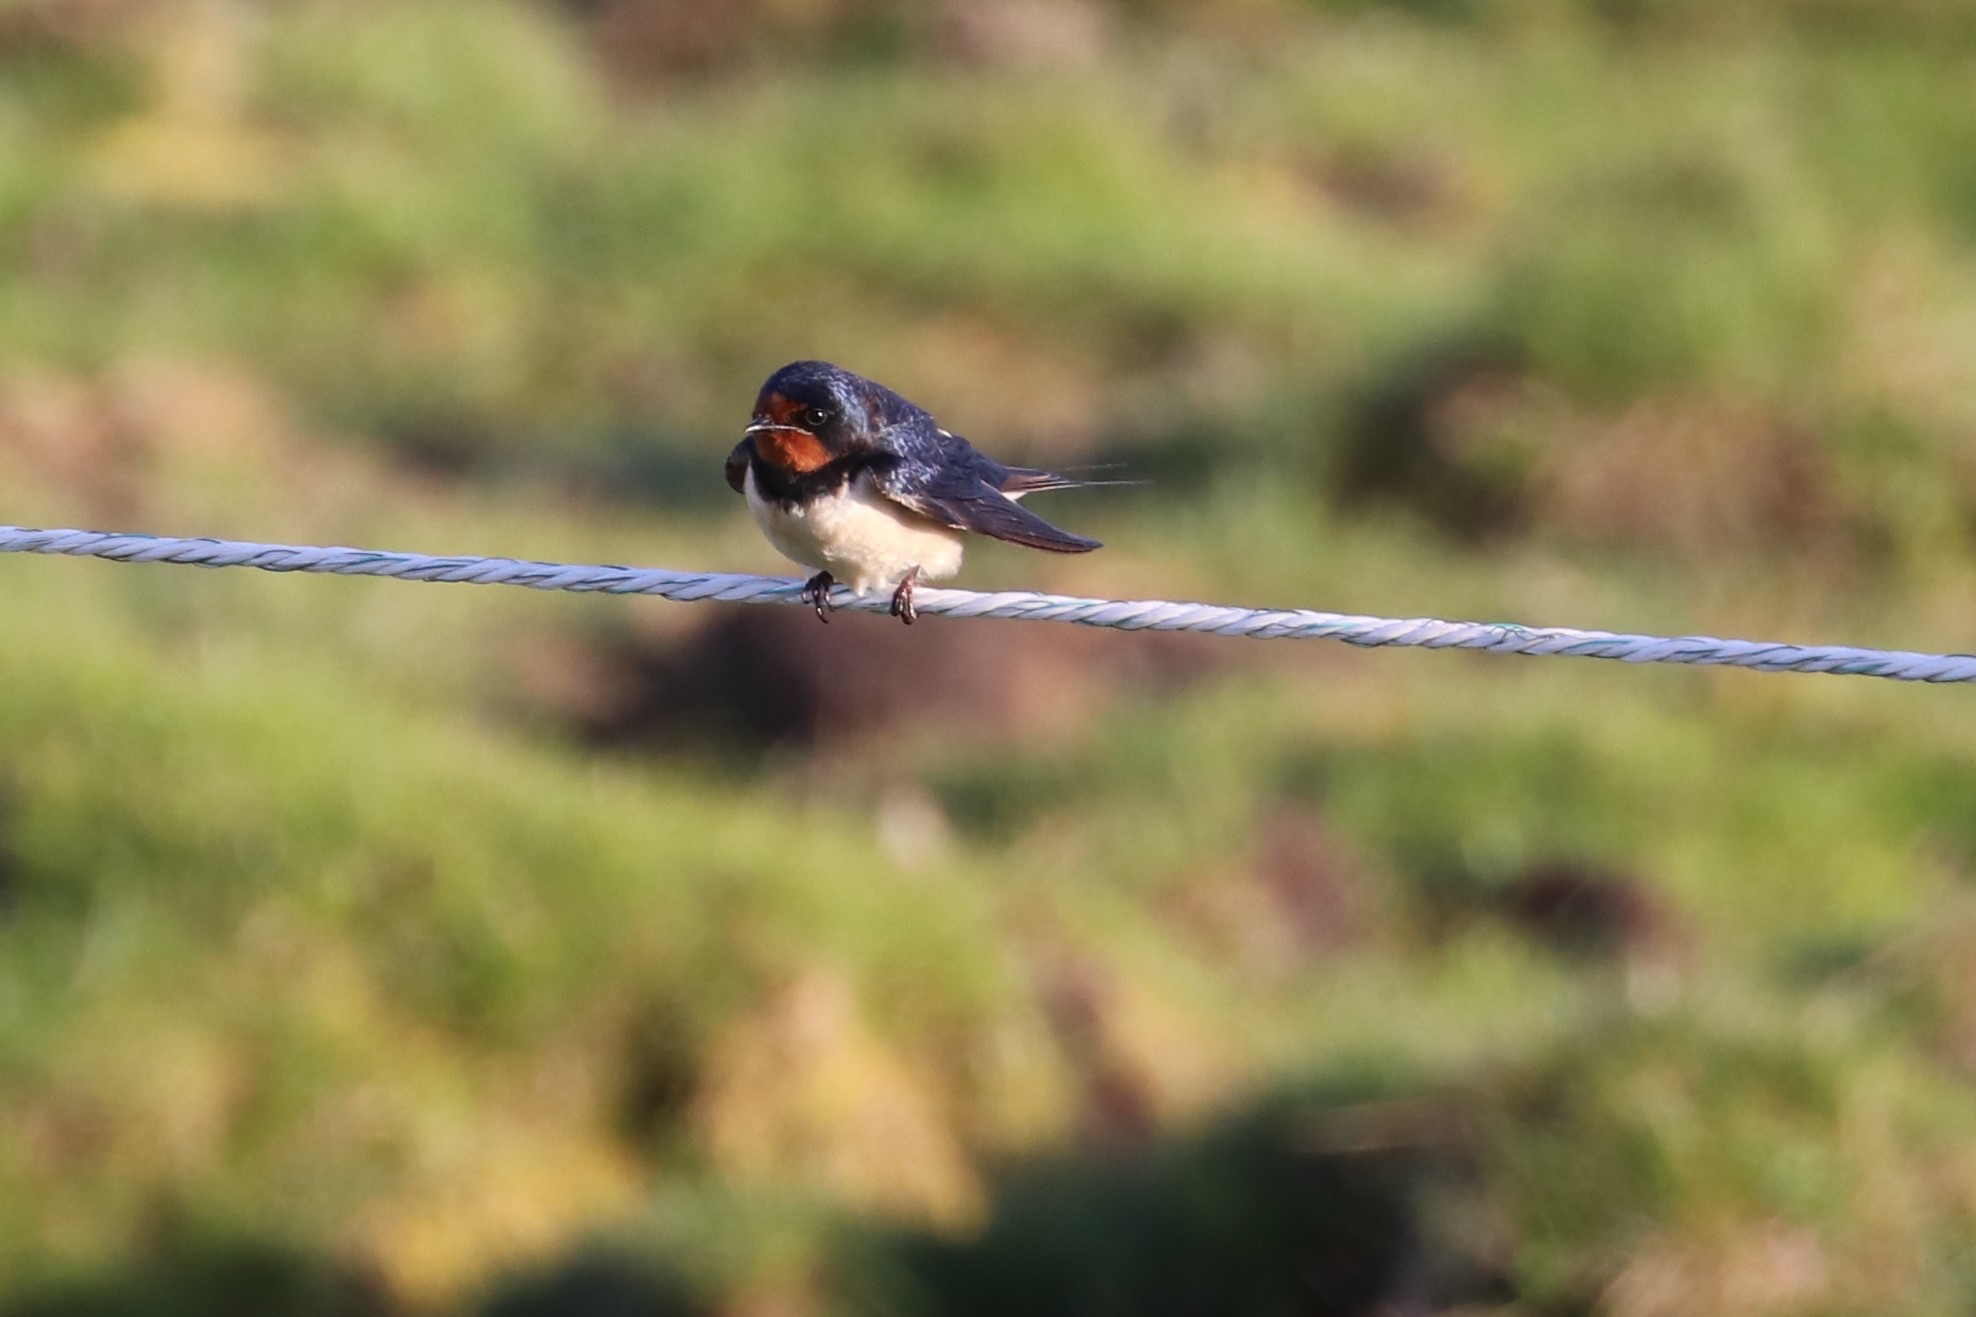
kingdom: Animalia
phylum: Chordata
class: Aves
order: Passeriformes
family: Hirundinidae
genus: Hirundo
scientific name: Hirundo rustica
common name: Barn swallow
